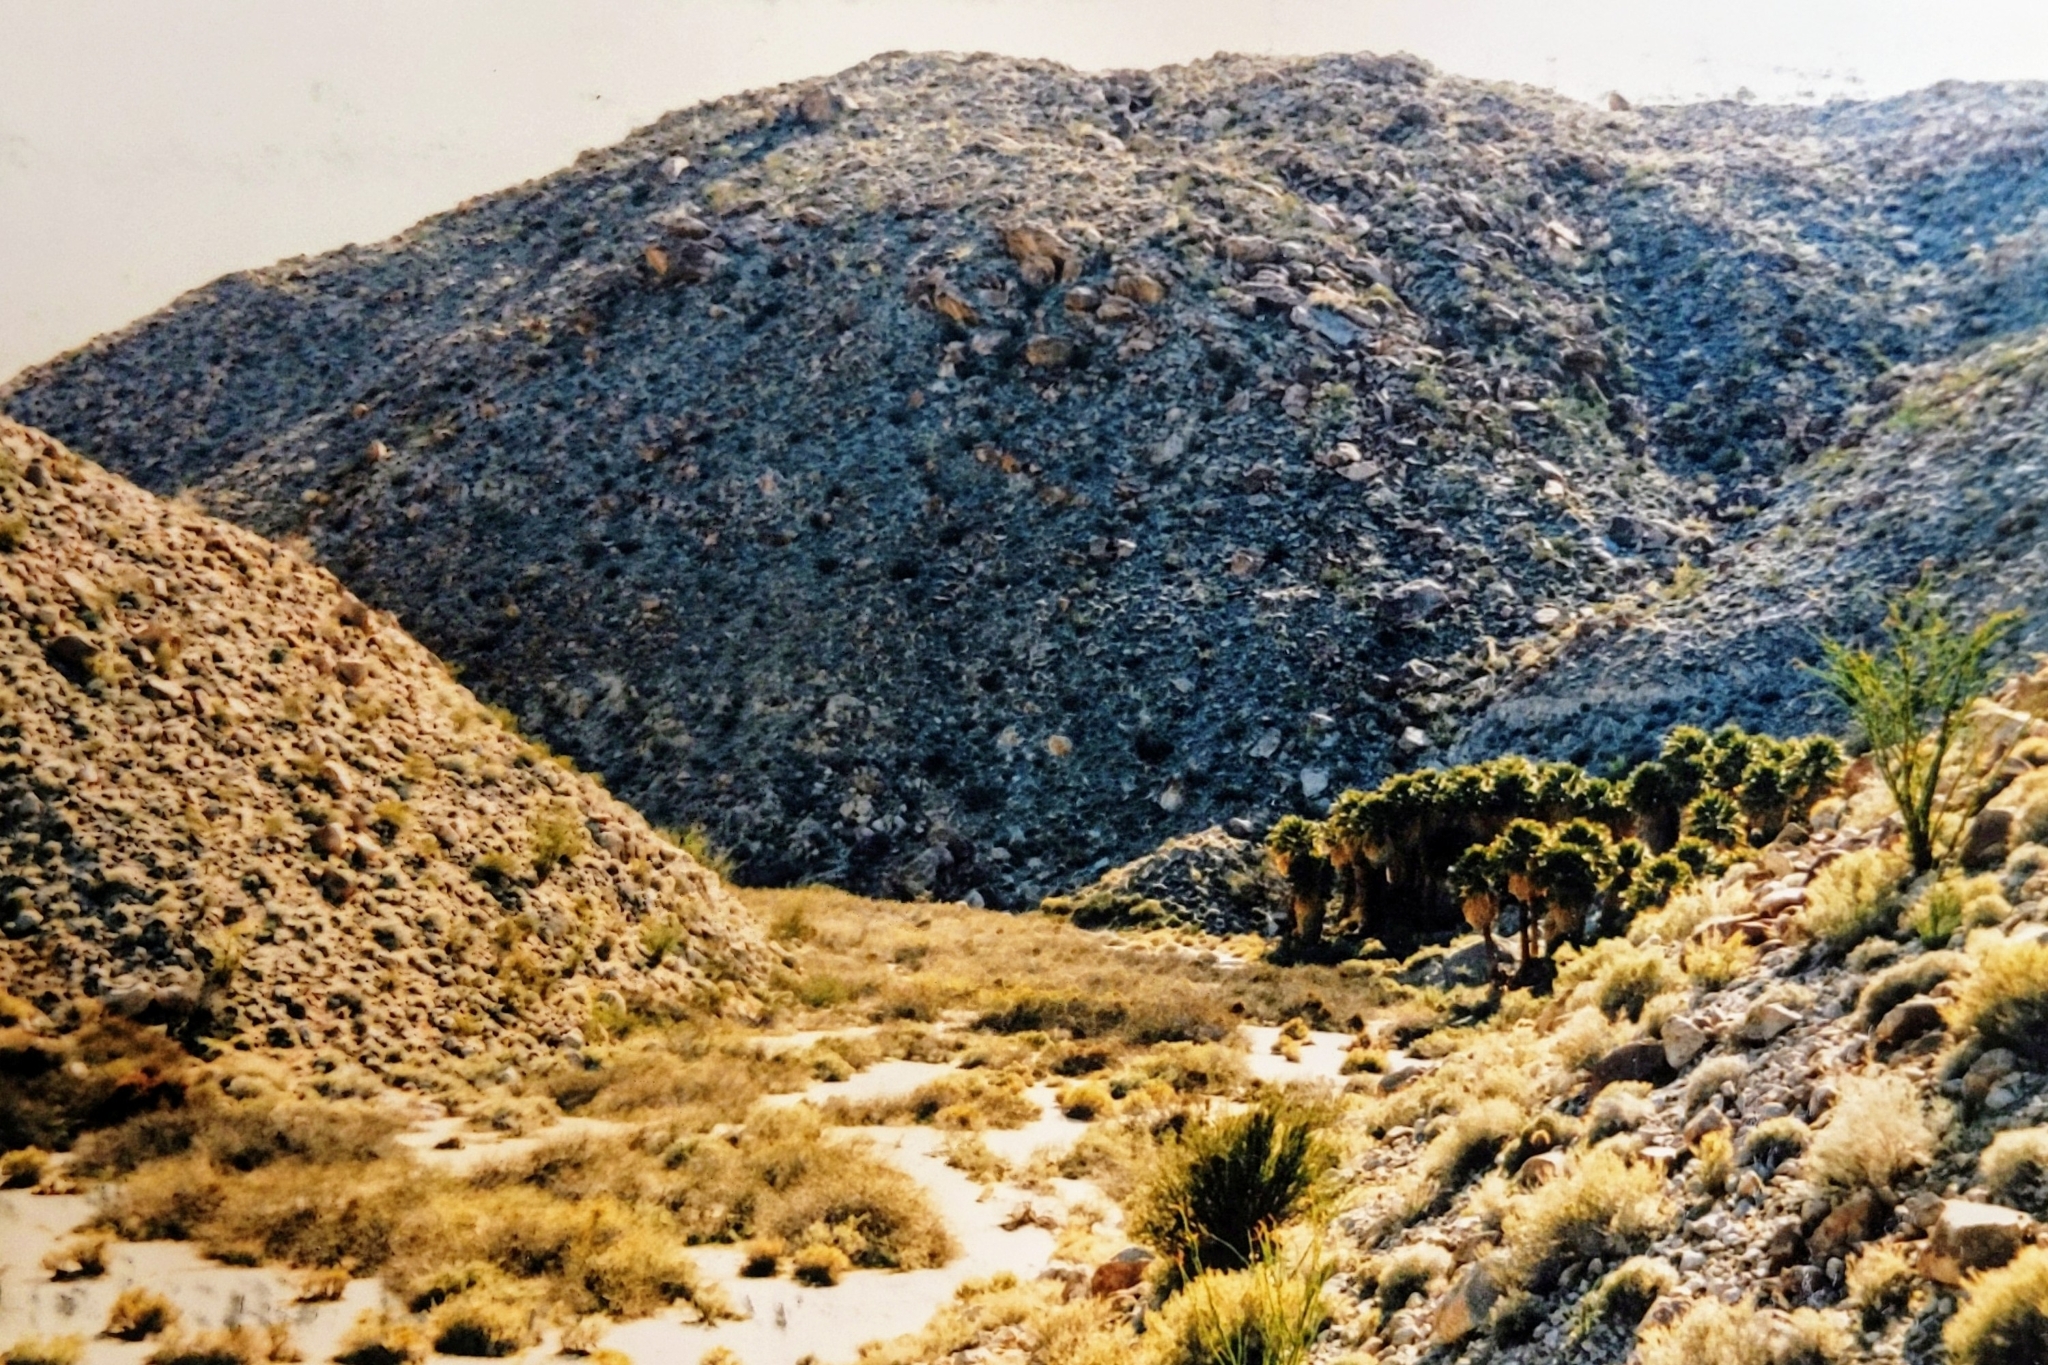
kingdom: Plantae
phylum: Tracheophyta
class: Liliopsida
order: Arecales
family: Arecaceae
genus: Washingtonia
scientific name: Washingtonia filifera
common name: California fan palm
